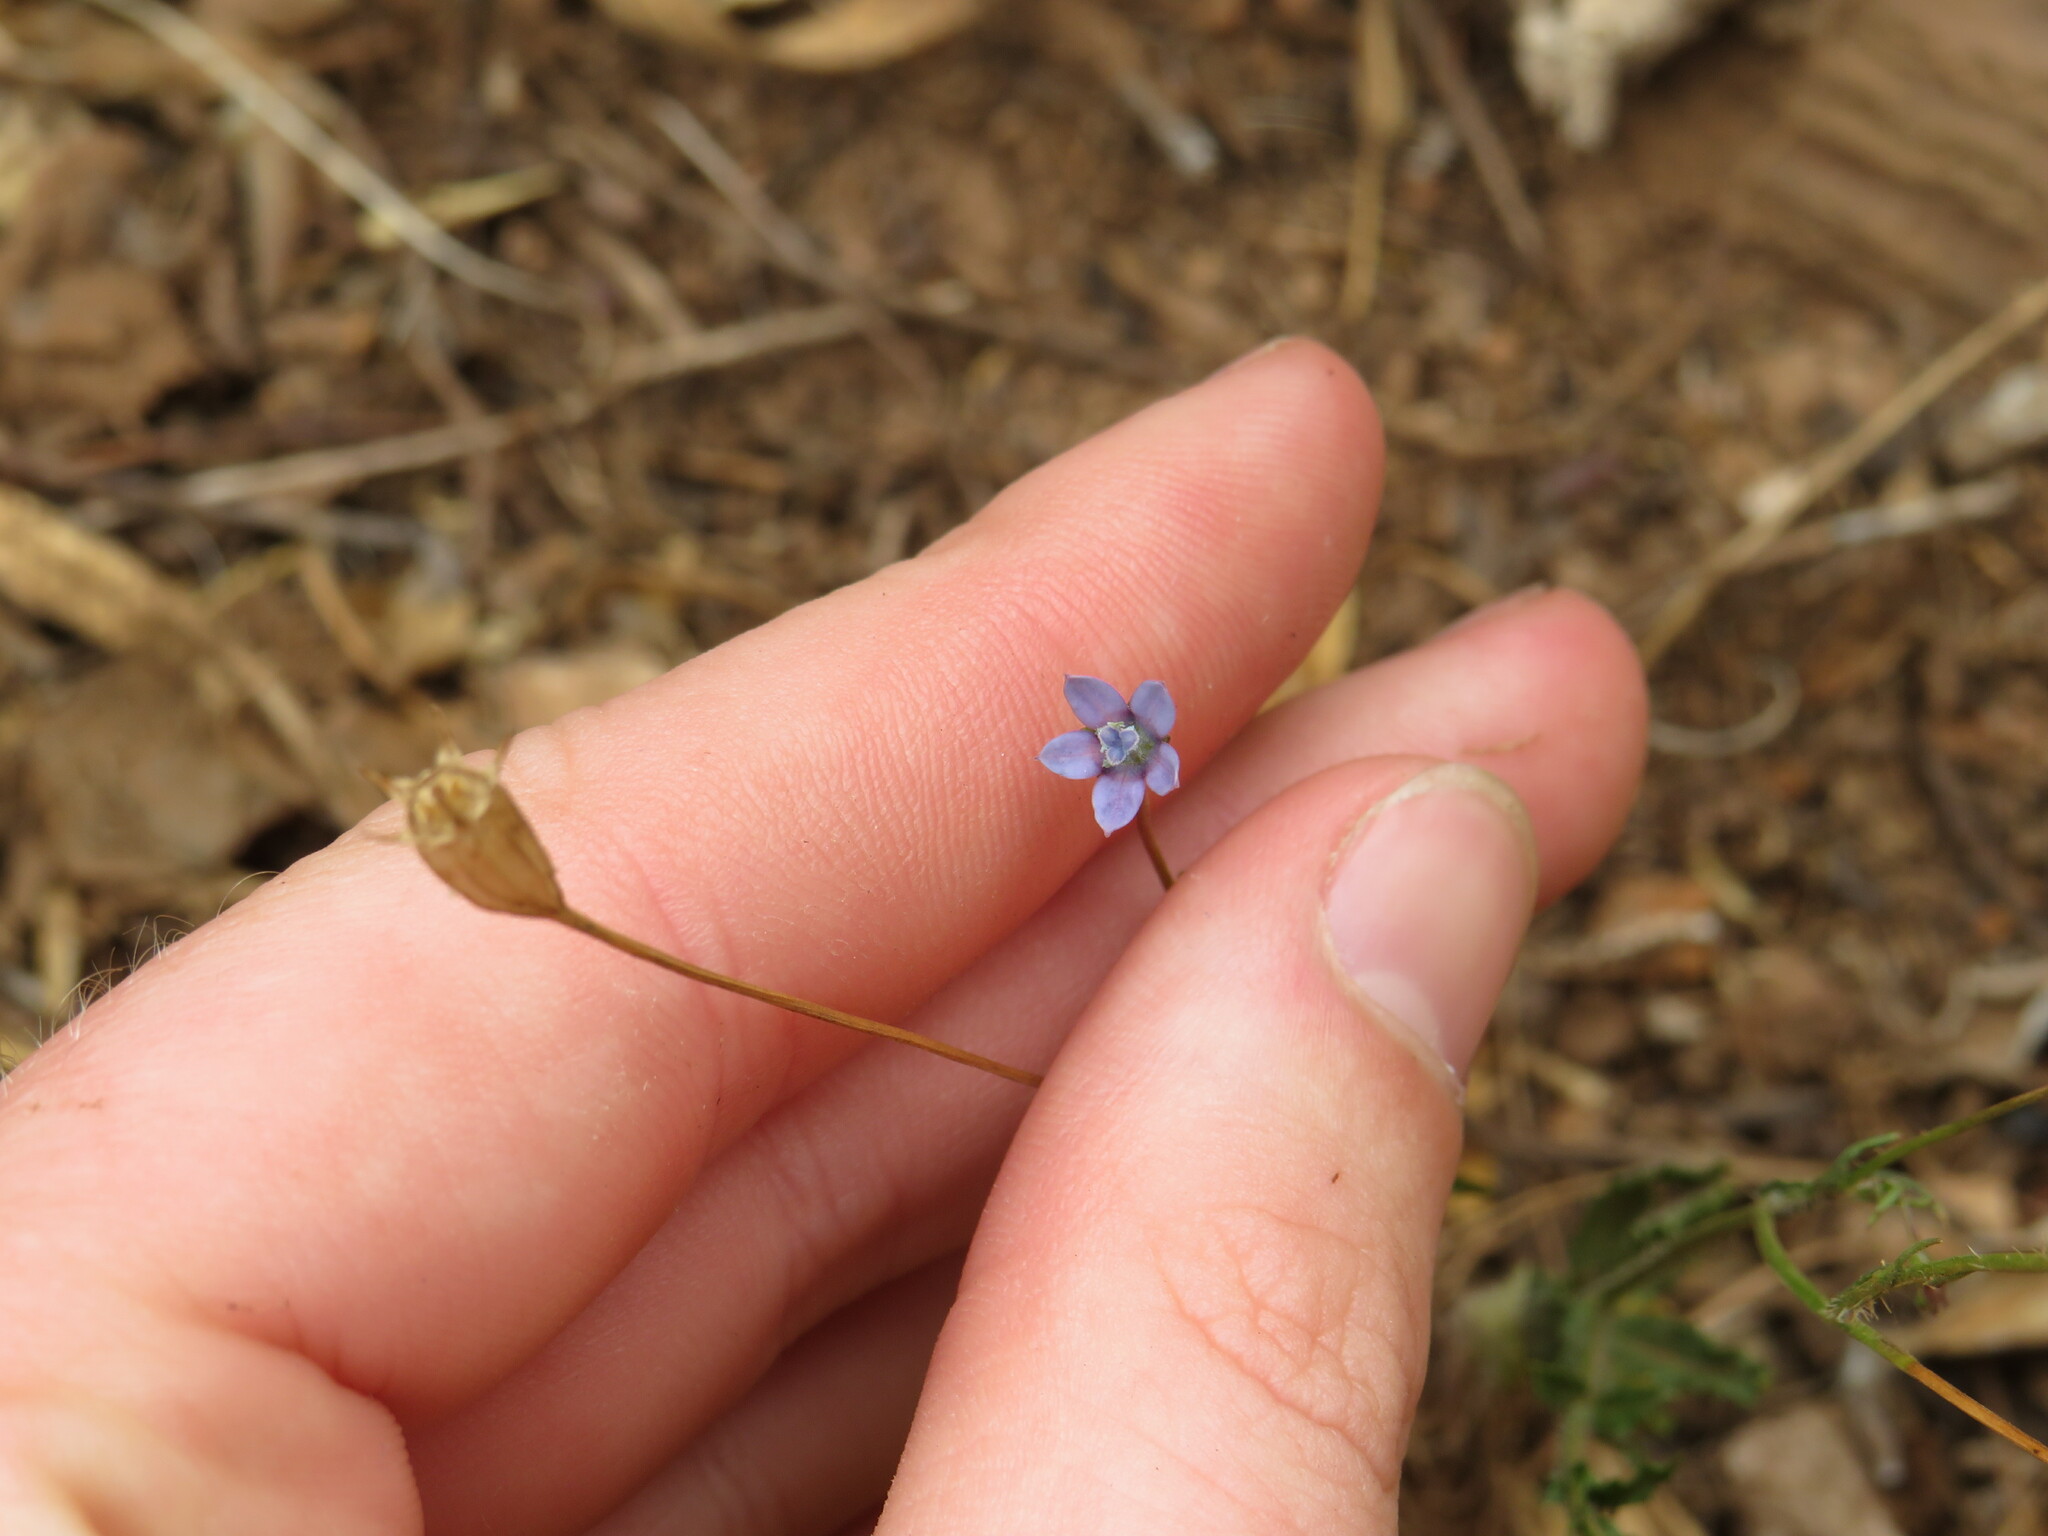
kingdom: Plantae
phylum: Tracheophyta
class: Magnoliopsida
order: Asterales
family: Campanulaceae
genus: Wahlenbergia
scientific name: Wahlenbergia cernua
